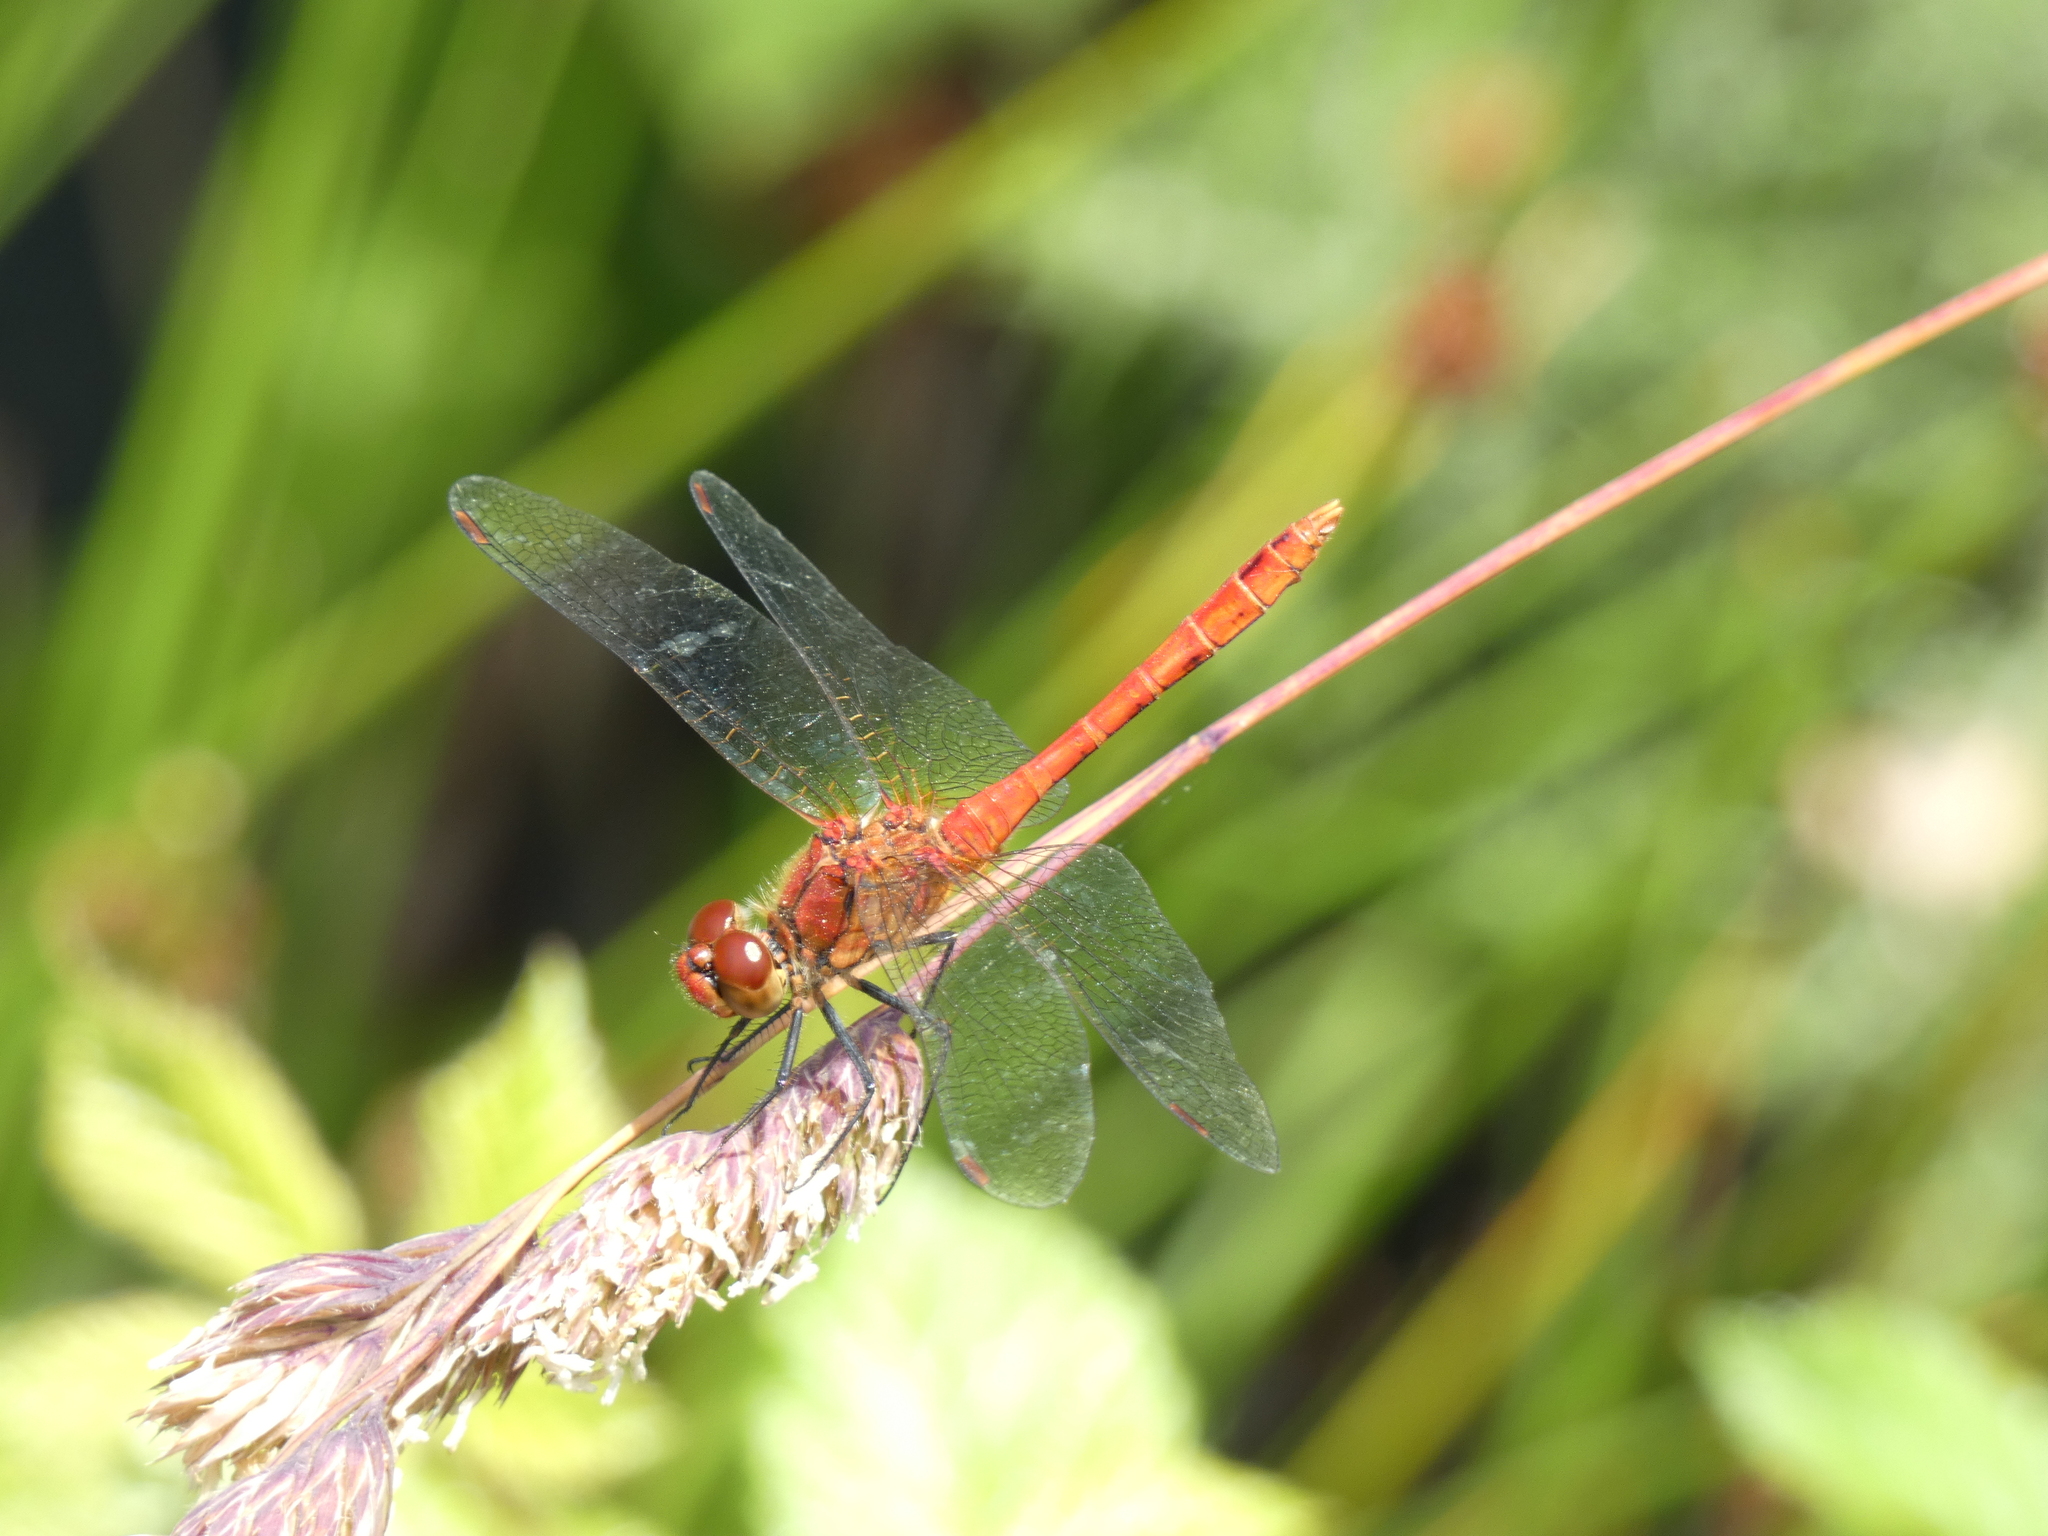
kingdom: Animalia
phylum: Arthropoda
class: Insecta
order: Odonata
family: Libellulidae
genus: Sympetrum
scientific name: Sympetrum sanguineum
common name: Ruddy darter
